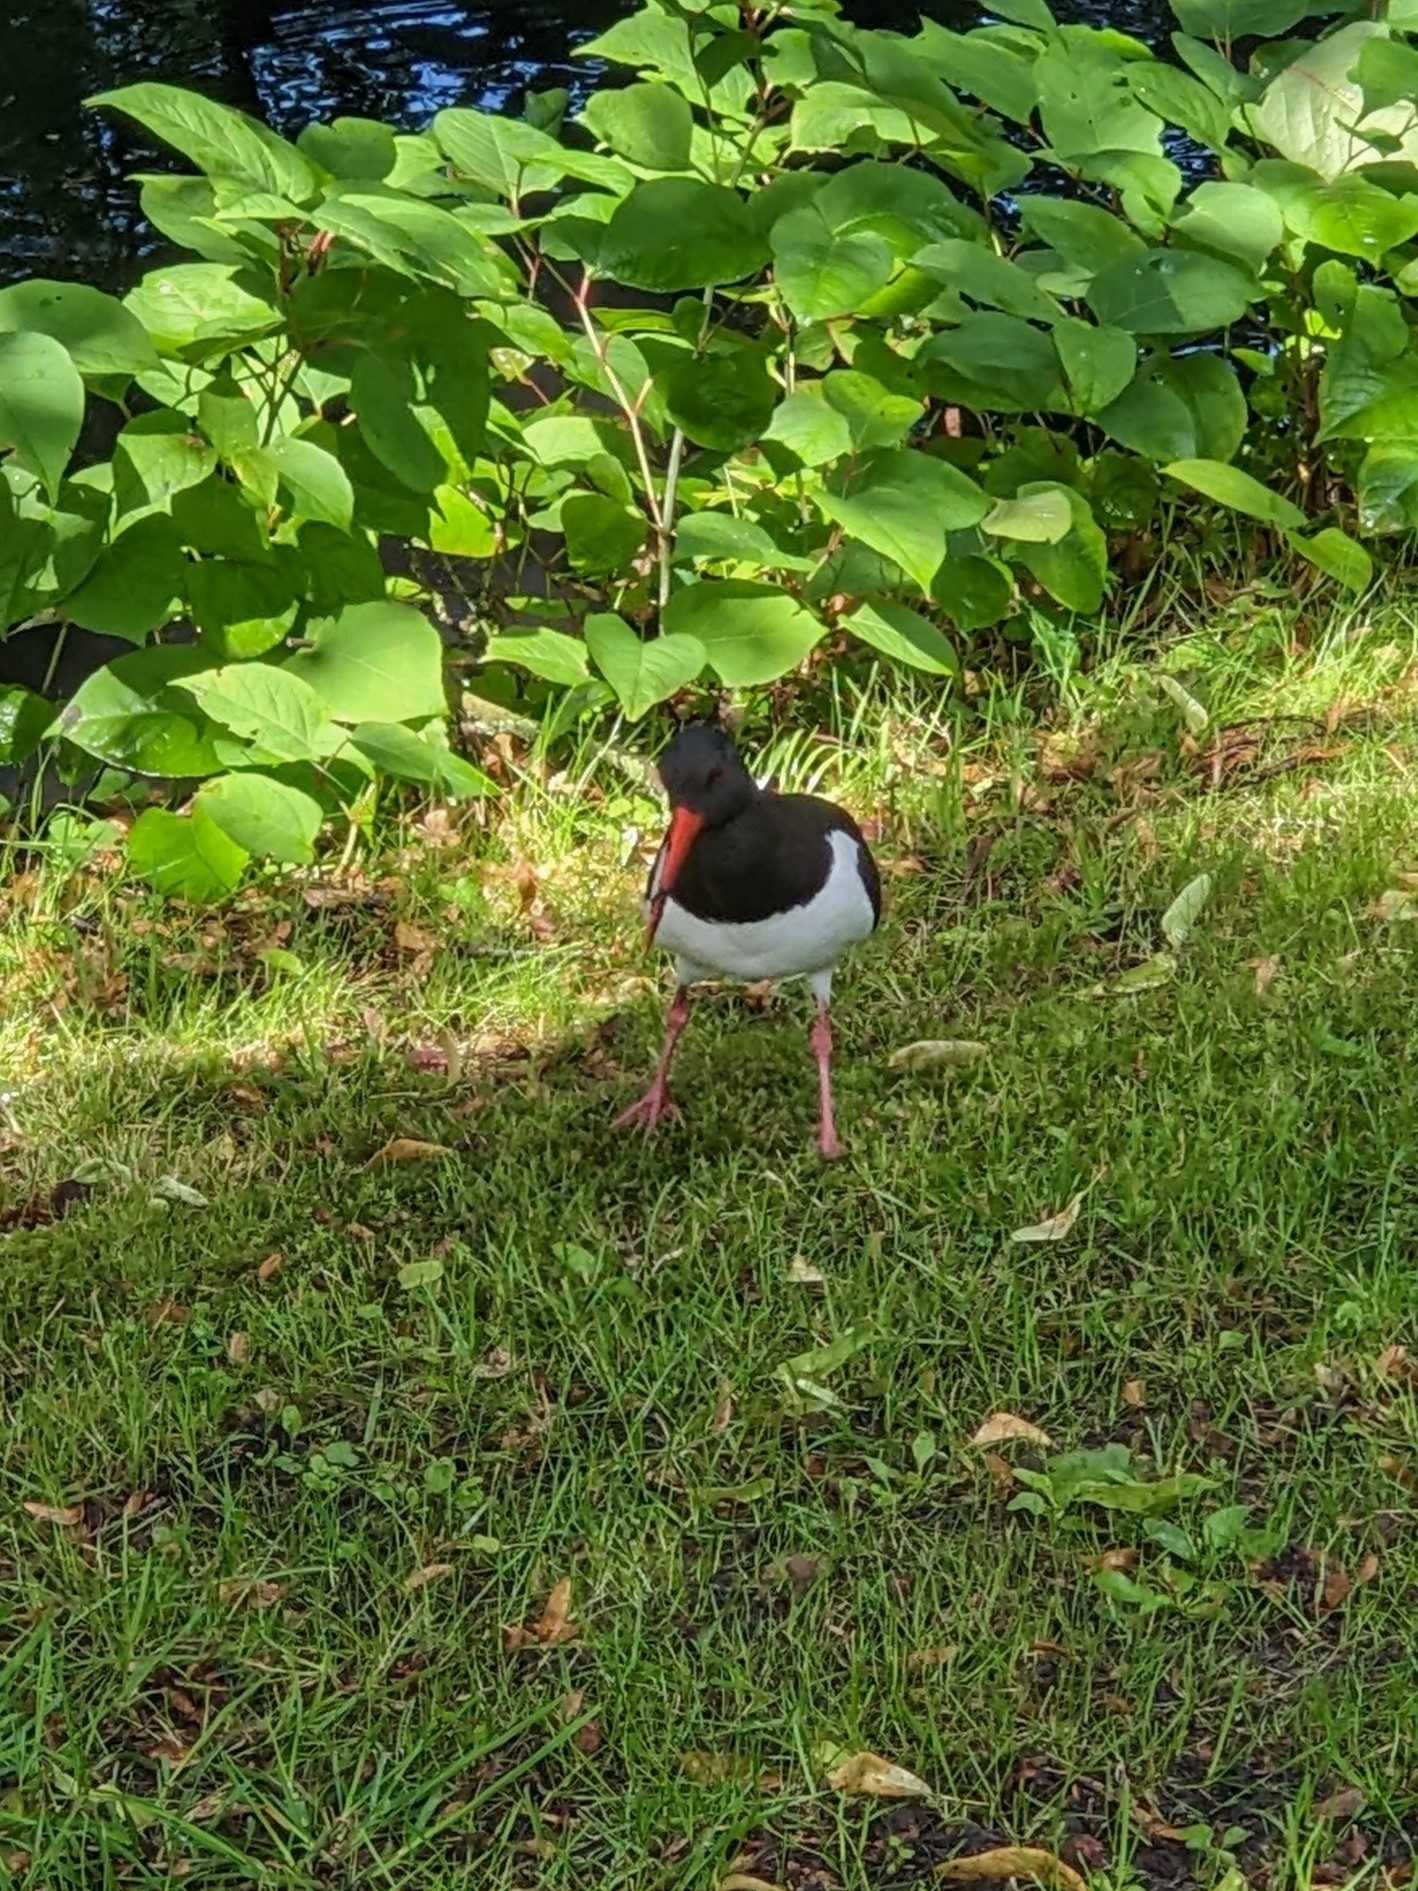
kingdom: Animalia
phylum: Chordata
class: Aves
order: Charadriiformes
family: Haematopodidae
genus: Haematopus
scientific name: Haematopus ostralegus
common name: Eurasian oystercatcher
